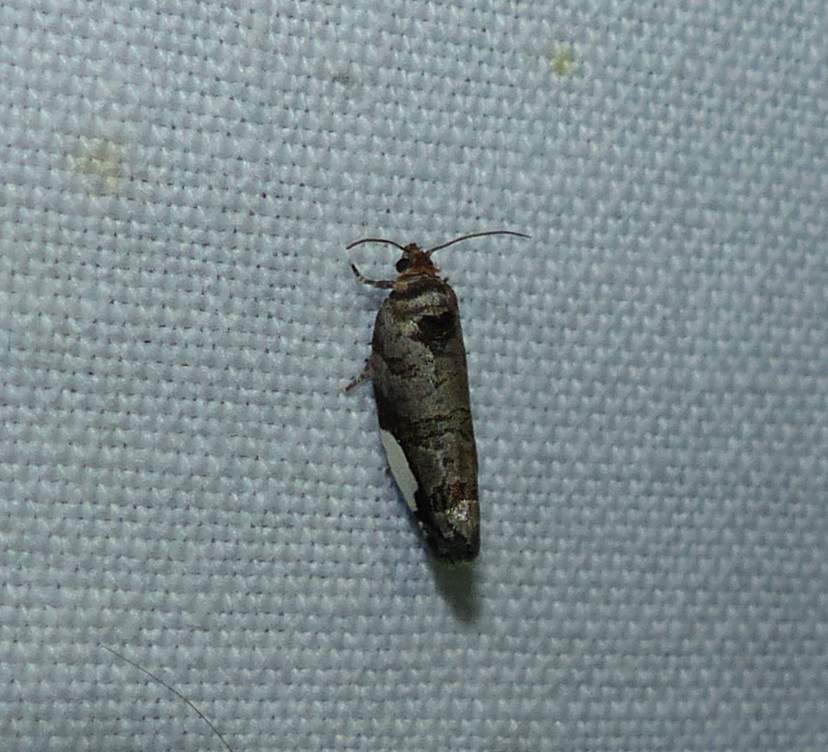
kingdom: Animalia
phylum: Arthropoda
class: Insecta
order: Lepidoptera
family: Tortricidae
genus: Hedya
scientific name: Hedya chionosema
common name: White-spotted hedya moth
